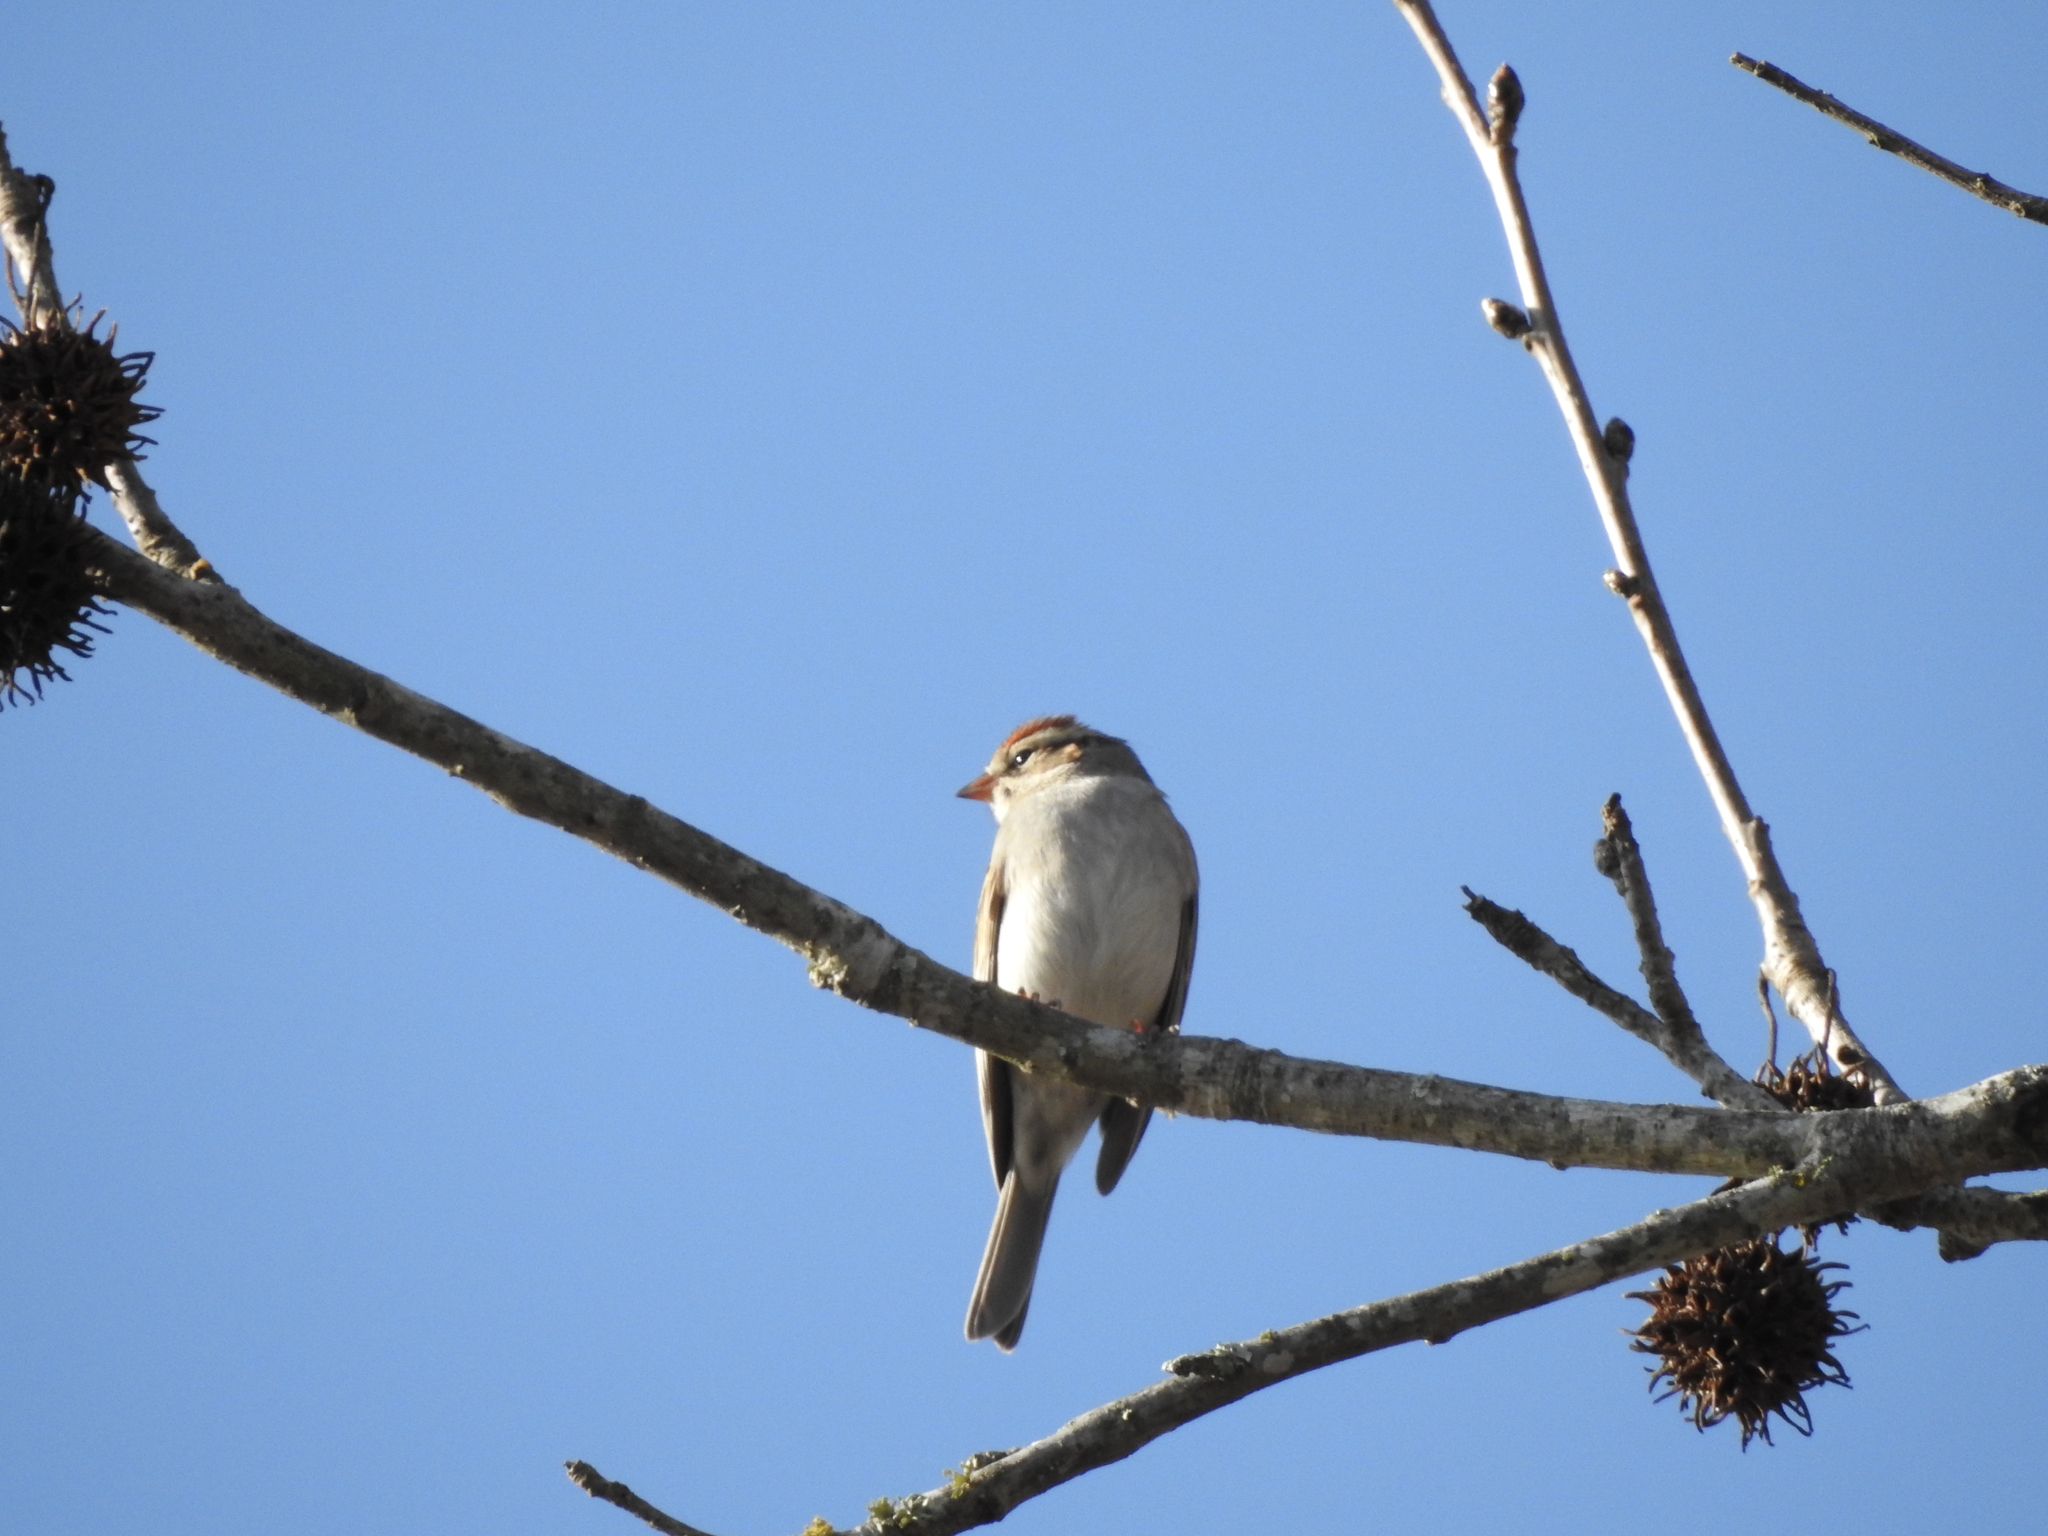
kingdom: Animalia
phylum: Chordata
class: Aves
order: Passeriformes
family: Passerellidae
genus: Spizella
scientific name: Spizella passerina
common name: Chipping sparrow
